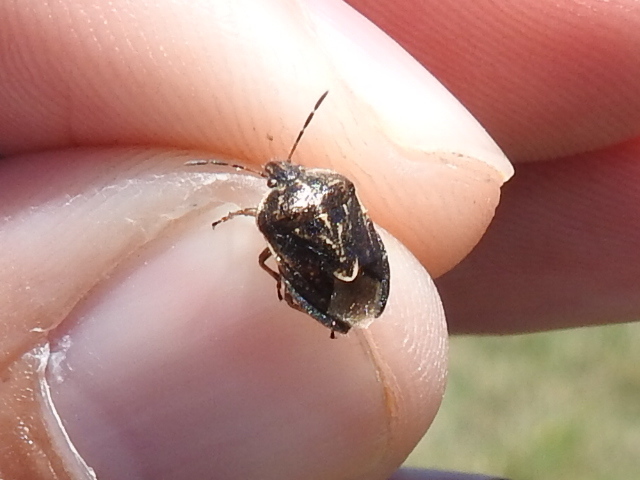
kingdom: Animalia
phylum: Arthropoda
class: Insecta
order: Hemiptera
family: Pentatomidae
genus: Trichopepla
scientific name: Trichopepla semivittata
